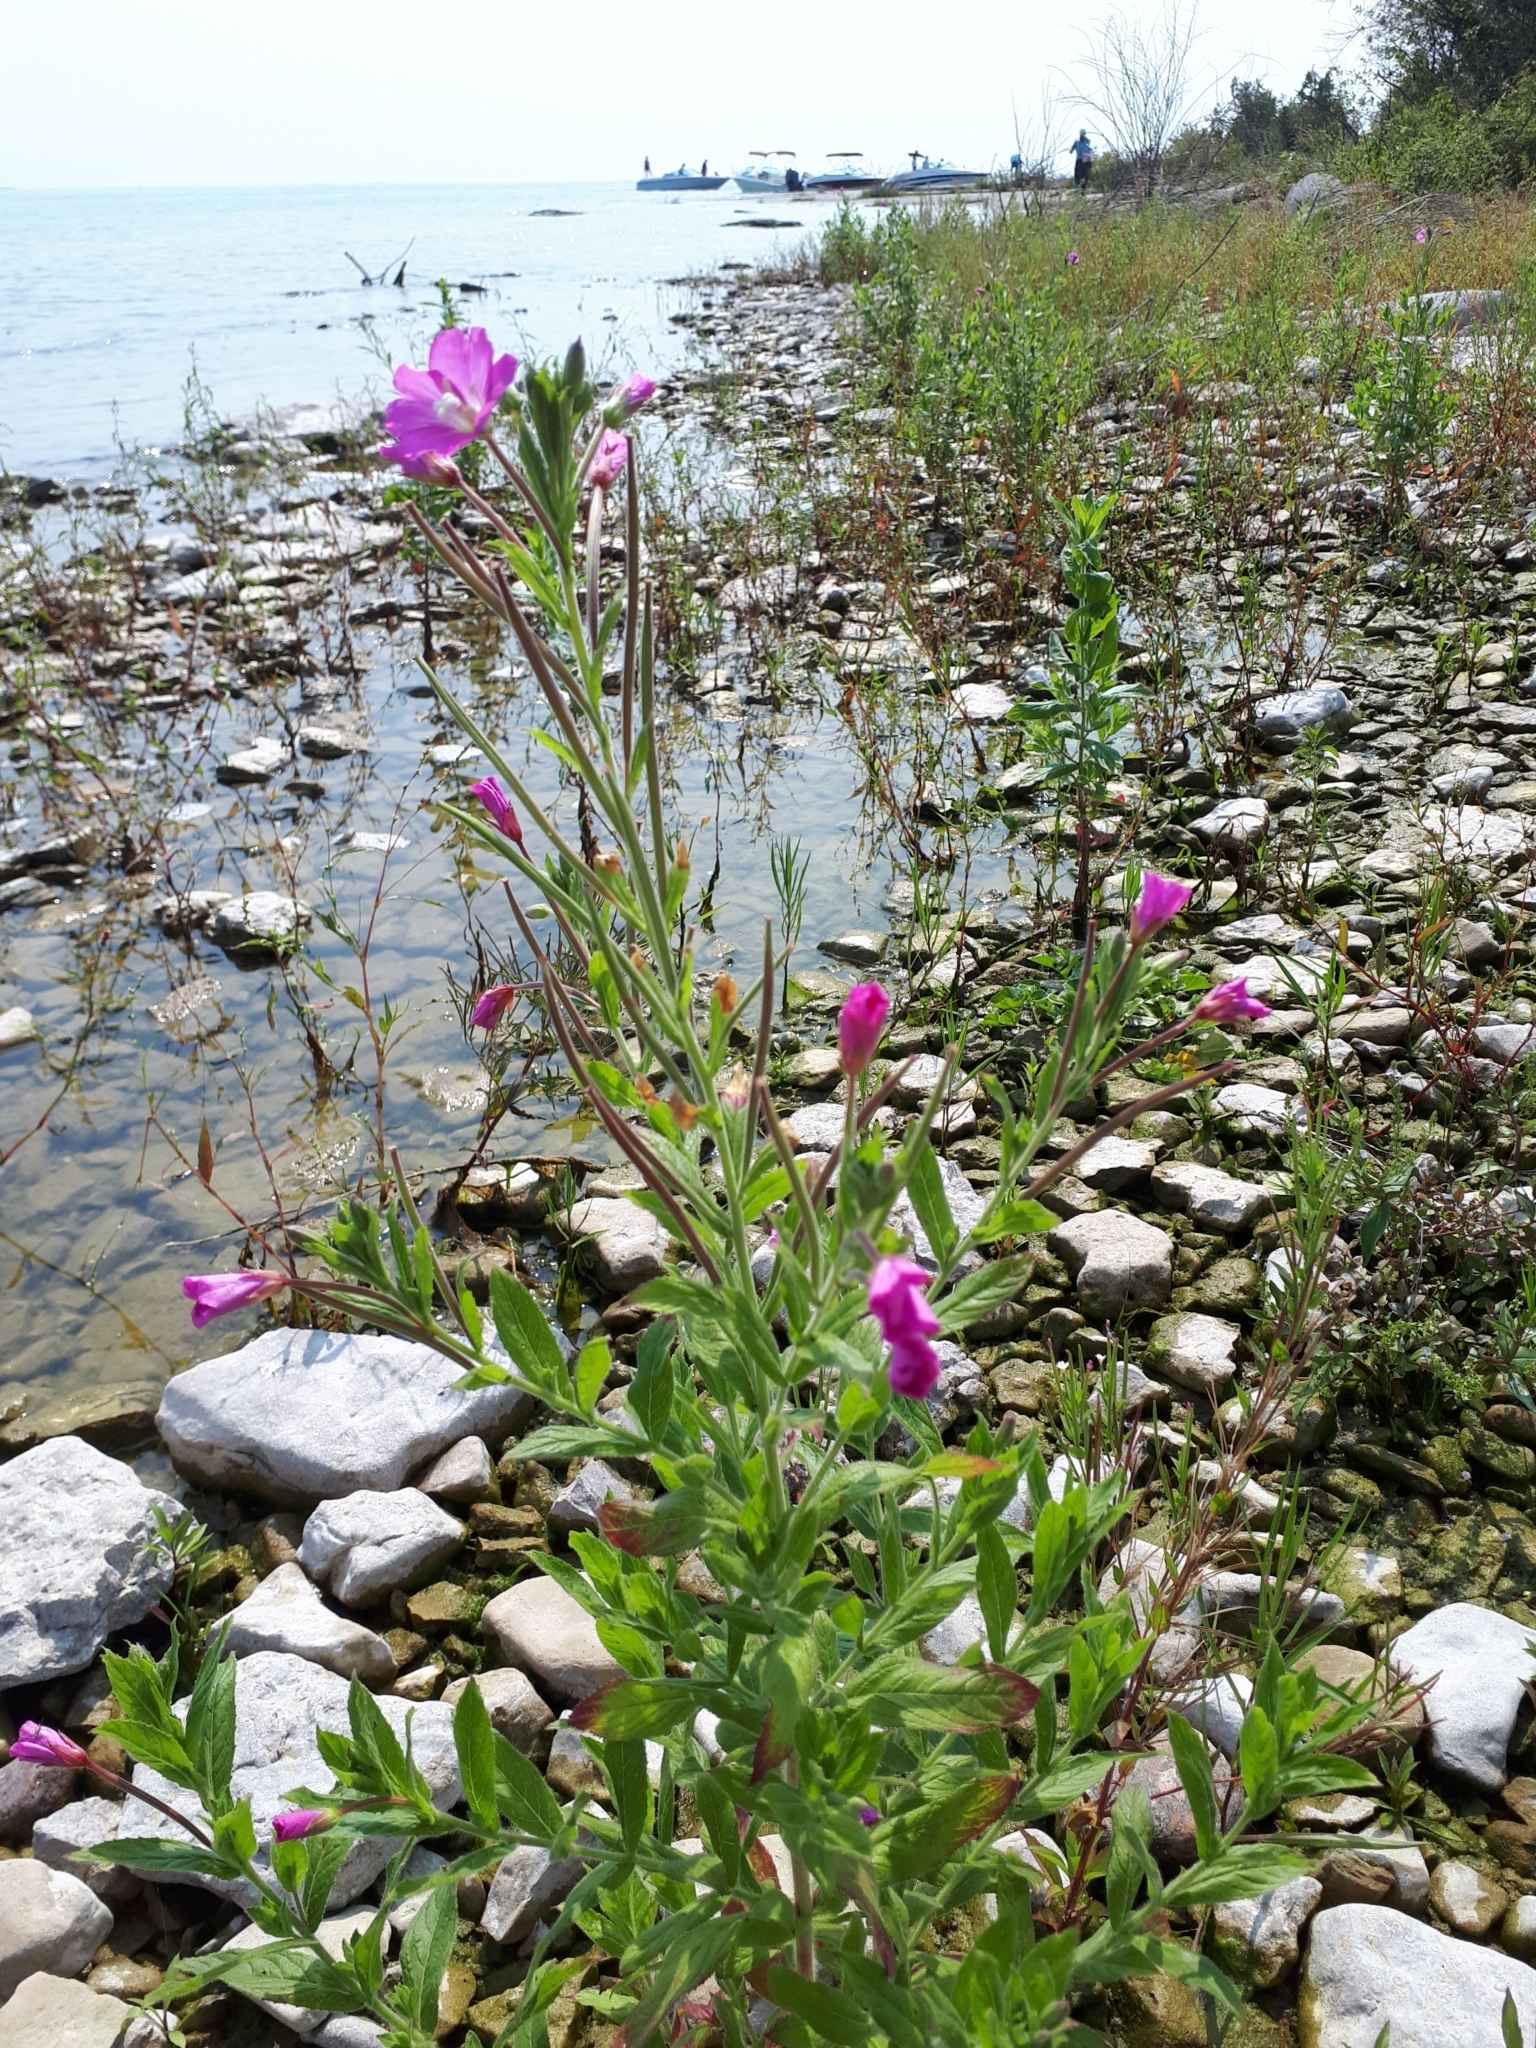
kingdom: Plantae
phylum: Tracheophyta
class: Magnoliopsida
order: Myrtales
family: Onagraceae
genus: Epilobium
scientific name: Epilobium hirsutum
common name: Great willowherb
